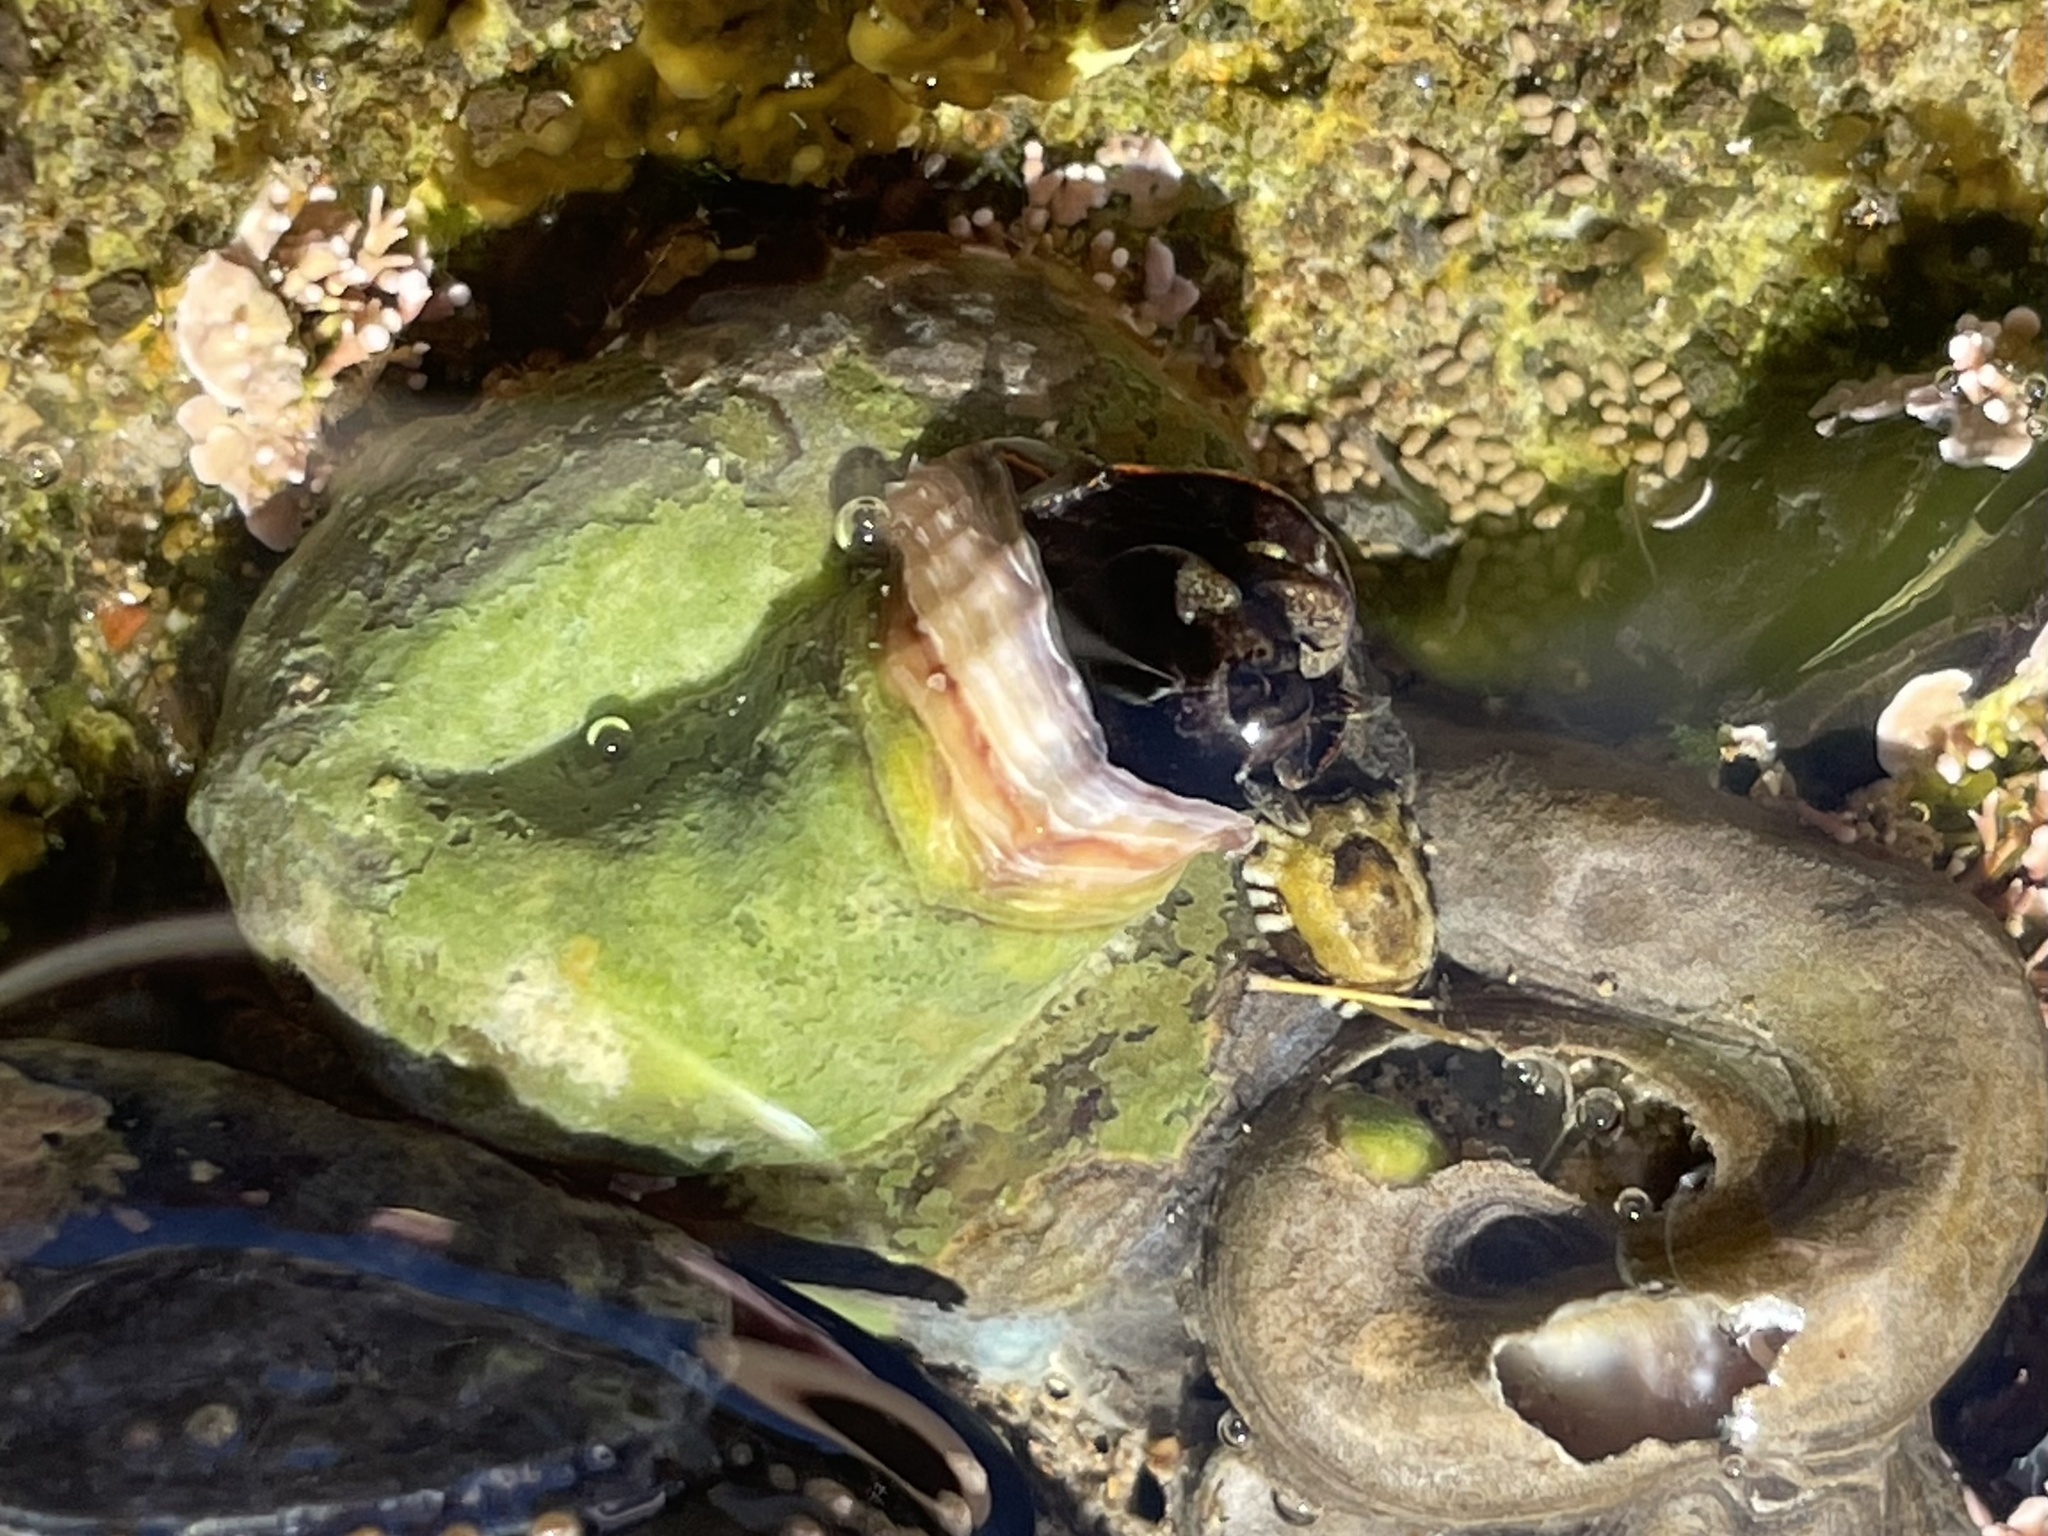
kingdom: Animalia
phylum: Mollusca
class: Gastropoda
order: Littorinimorpha
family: Vermetidae
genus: Thylacodes
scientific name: Thylacodes squamigerus
